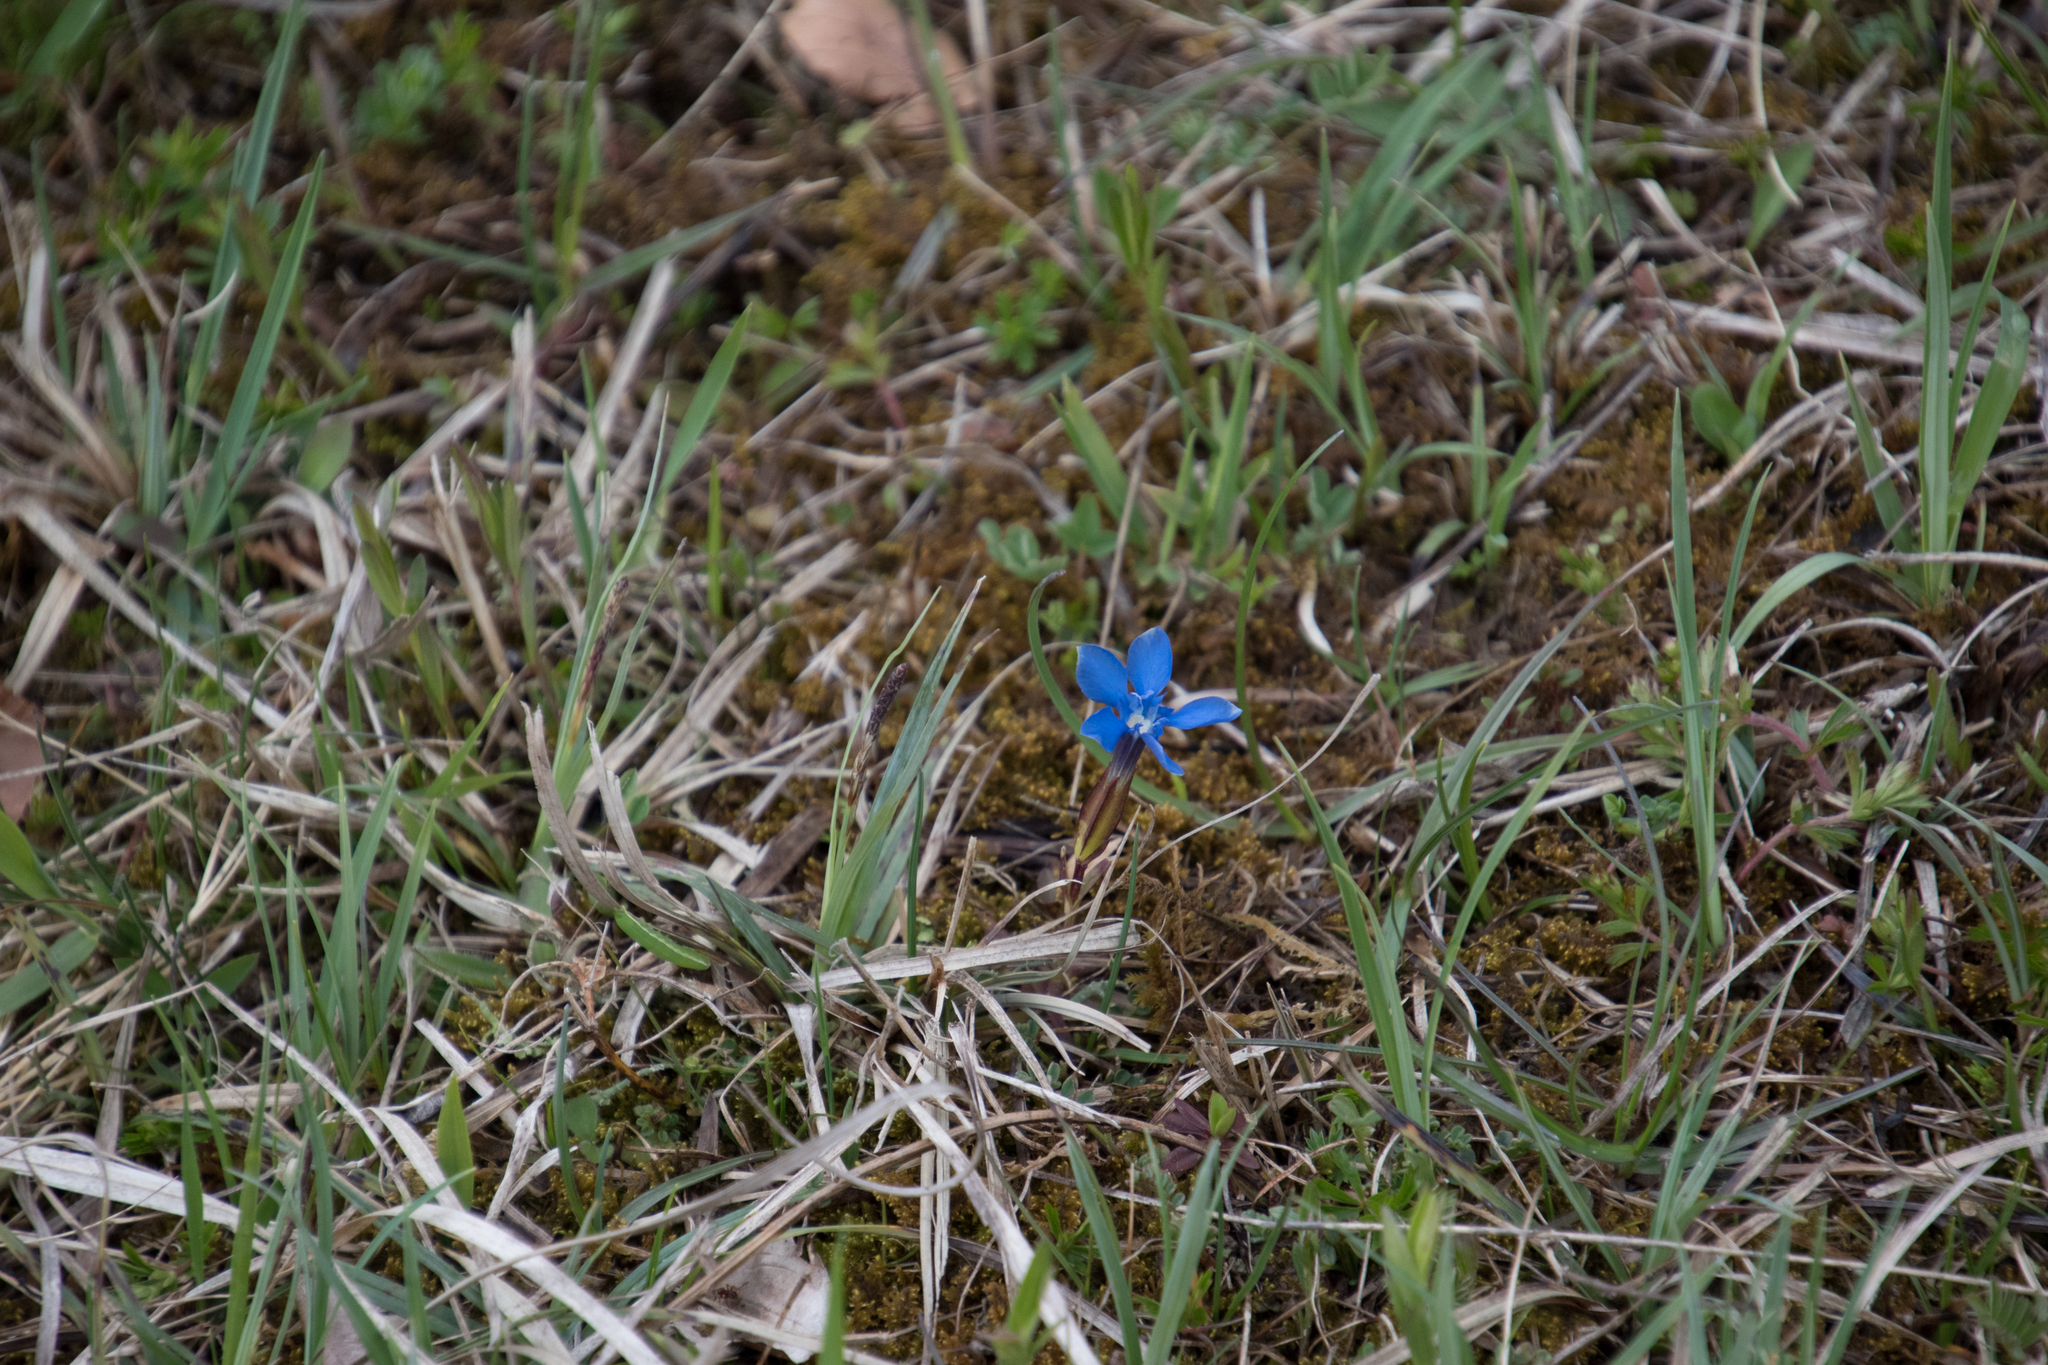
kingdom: Plantae
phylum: Tracheophyta
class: Magnoliopsida
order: Gentianales
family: Gentianaceae
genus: Gentiana
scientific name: Gentiana verna
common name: Spring gentian
